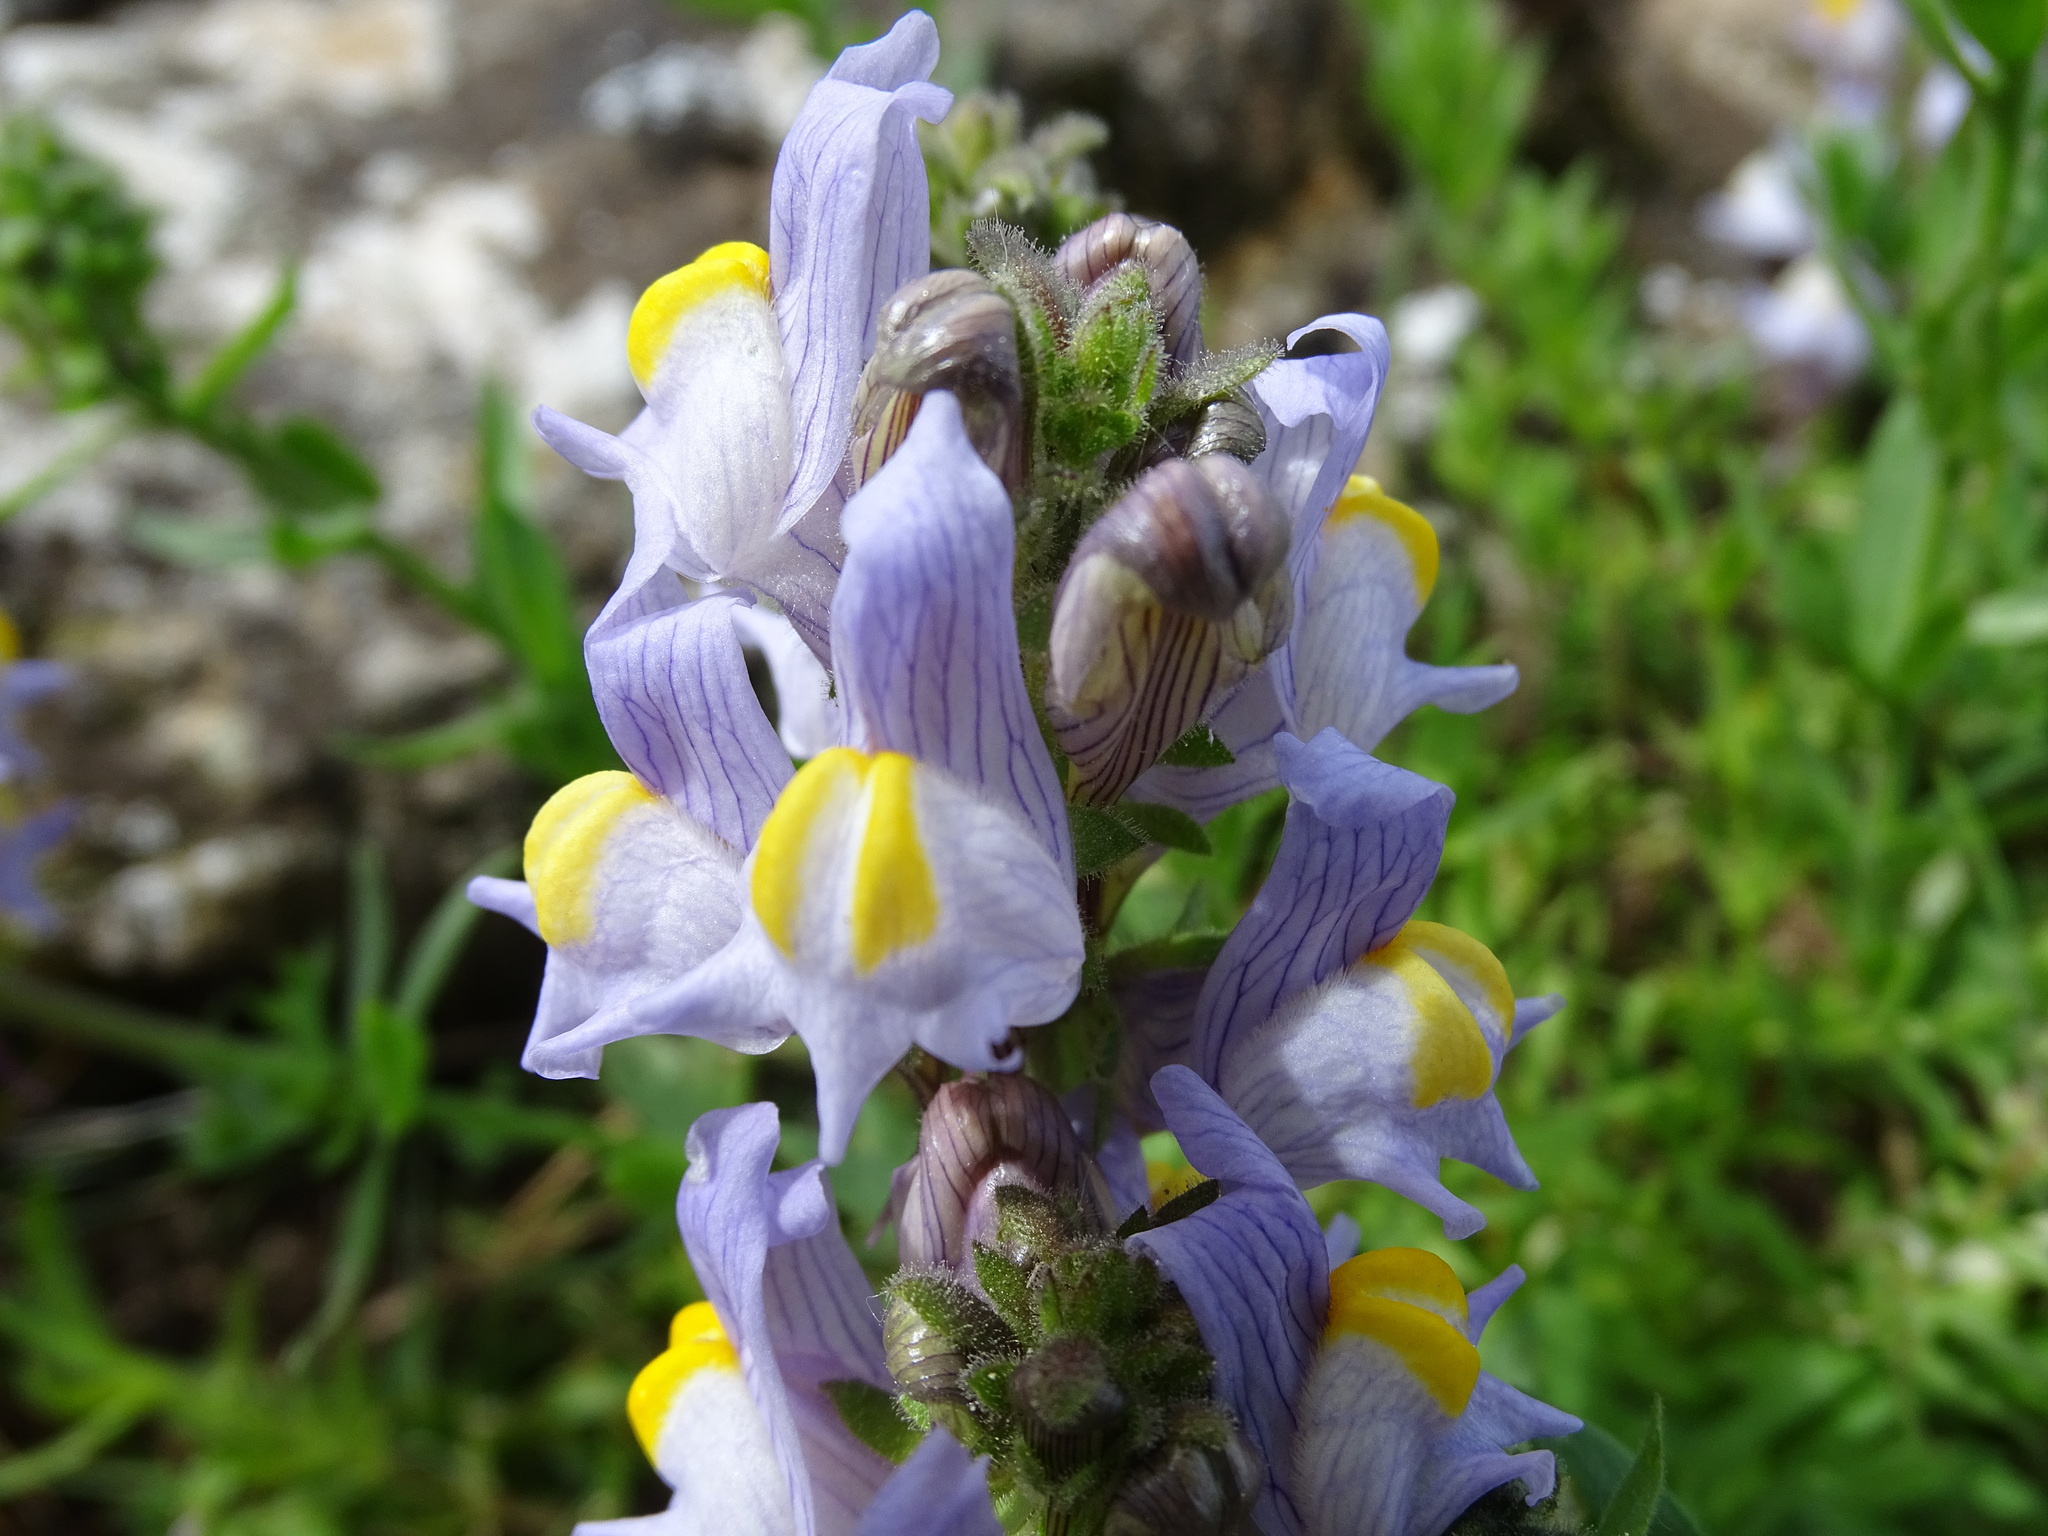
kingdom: Plantae
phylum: Tracheophyta
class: Magnoliopsida
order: Lamiales
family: Plantaginaceae
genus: Linaria
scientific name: Linaria verticillata
